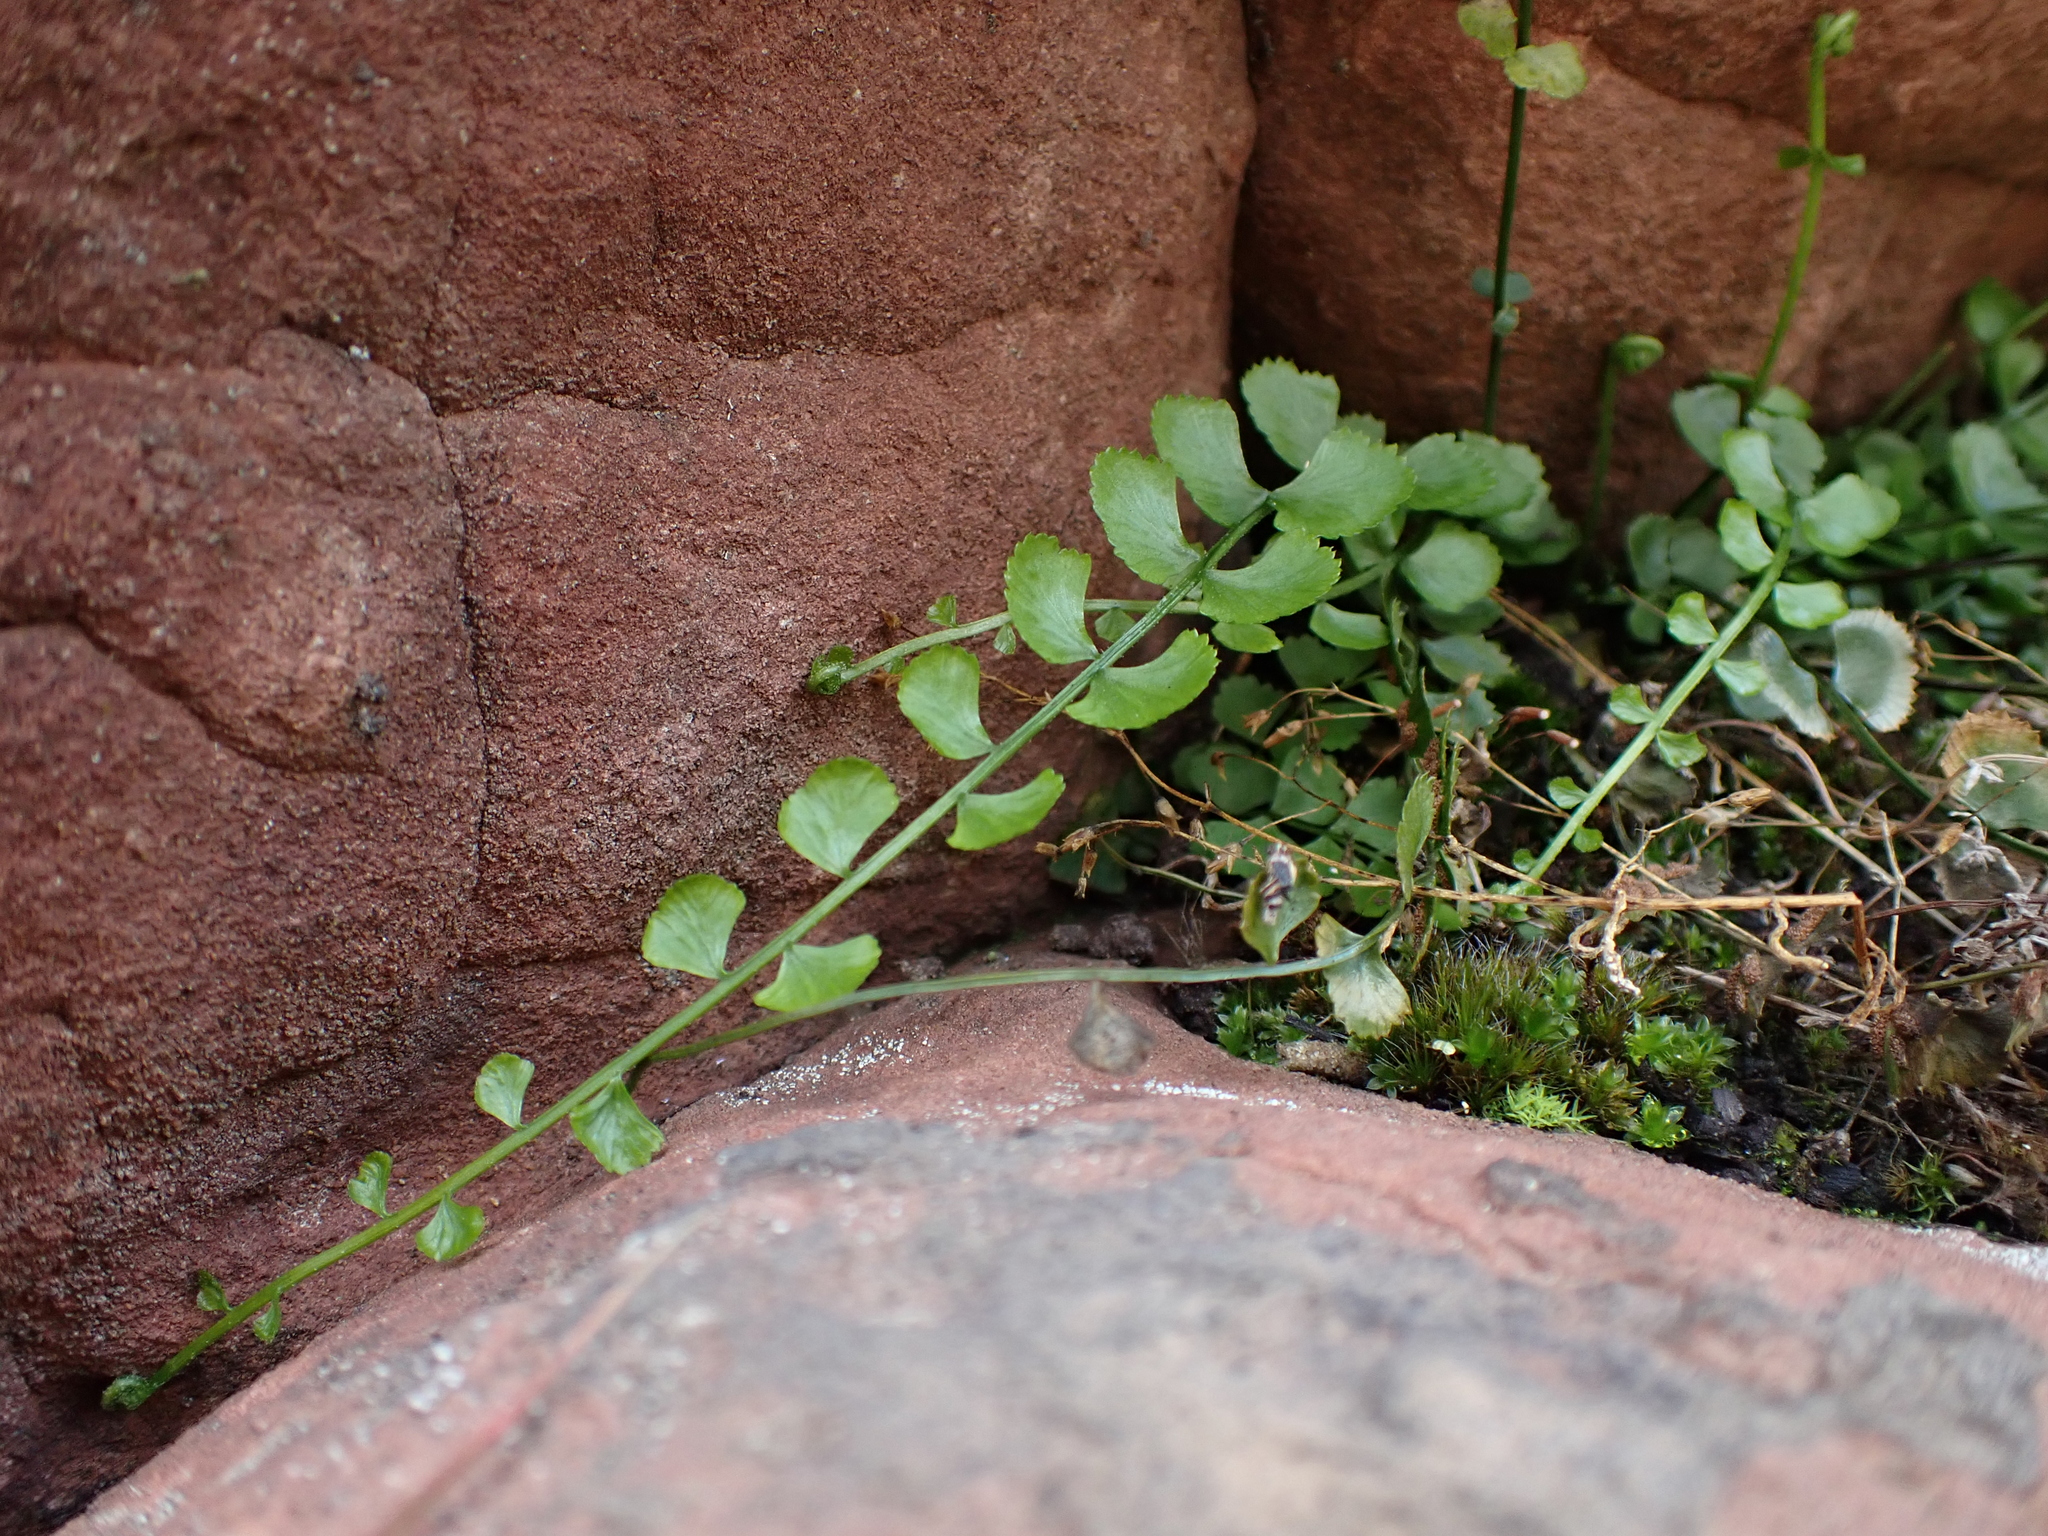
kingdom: Plantae
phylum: Tracheophyta
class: Polypodiopsida
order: Polypodiales
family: Aspleniaceae
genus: Asplenium
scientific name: Asplenium flabellifolium
